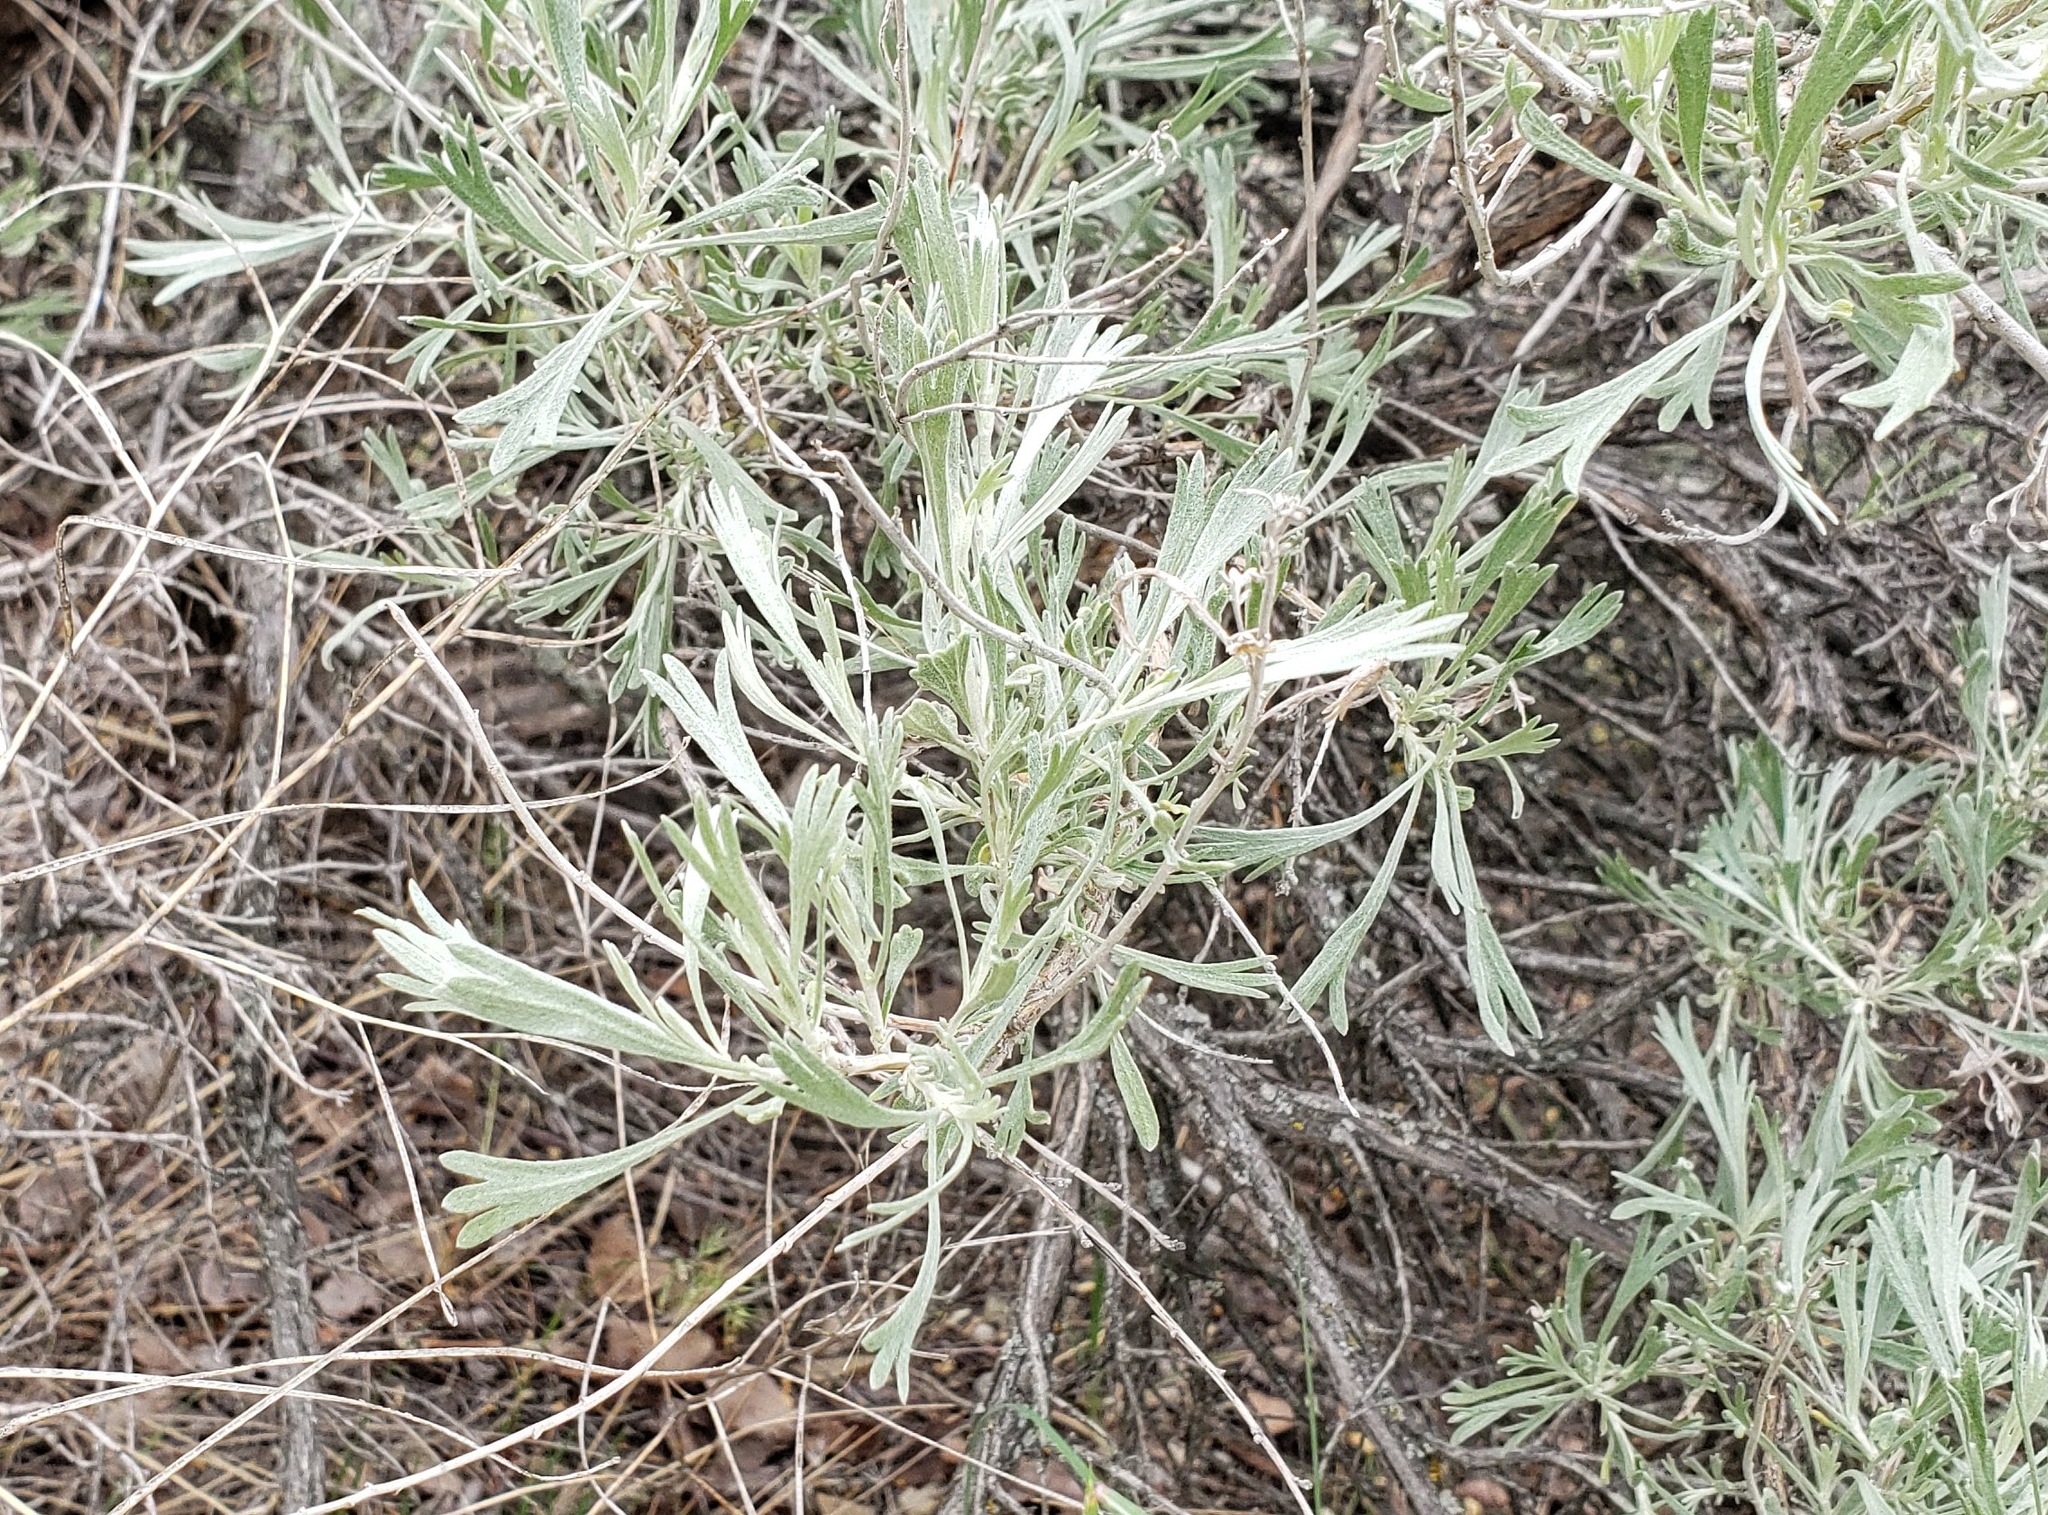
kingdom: Plantae
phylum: Tracheophyta
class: Magnoliopsida
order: Asterales
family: Asteraceae
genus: Artemisia
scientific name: Artemisia tridentata
